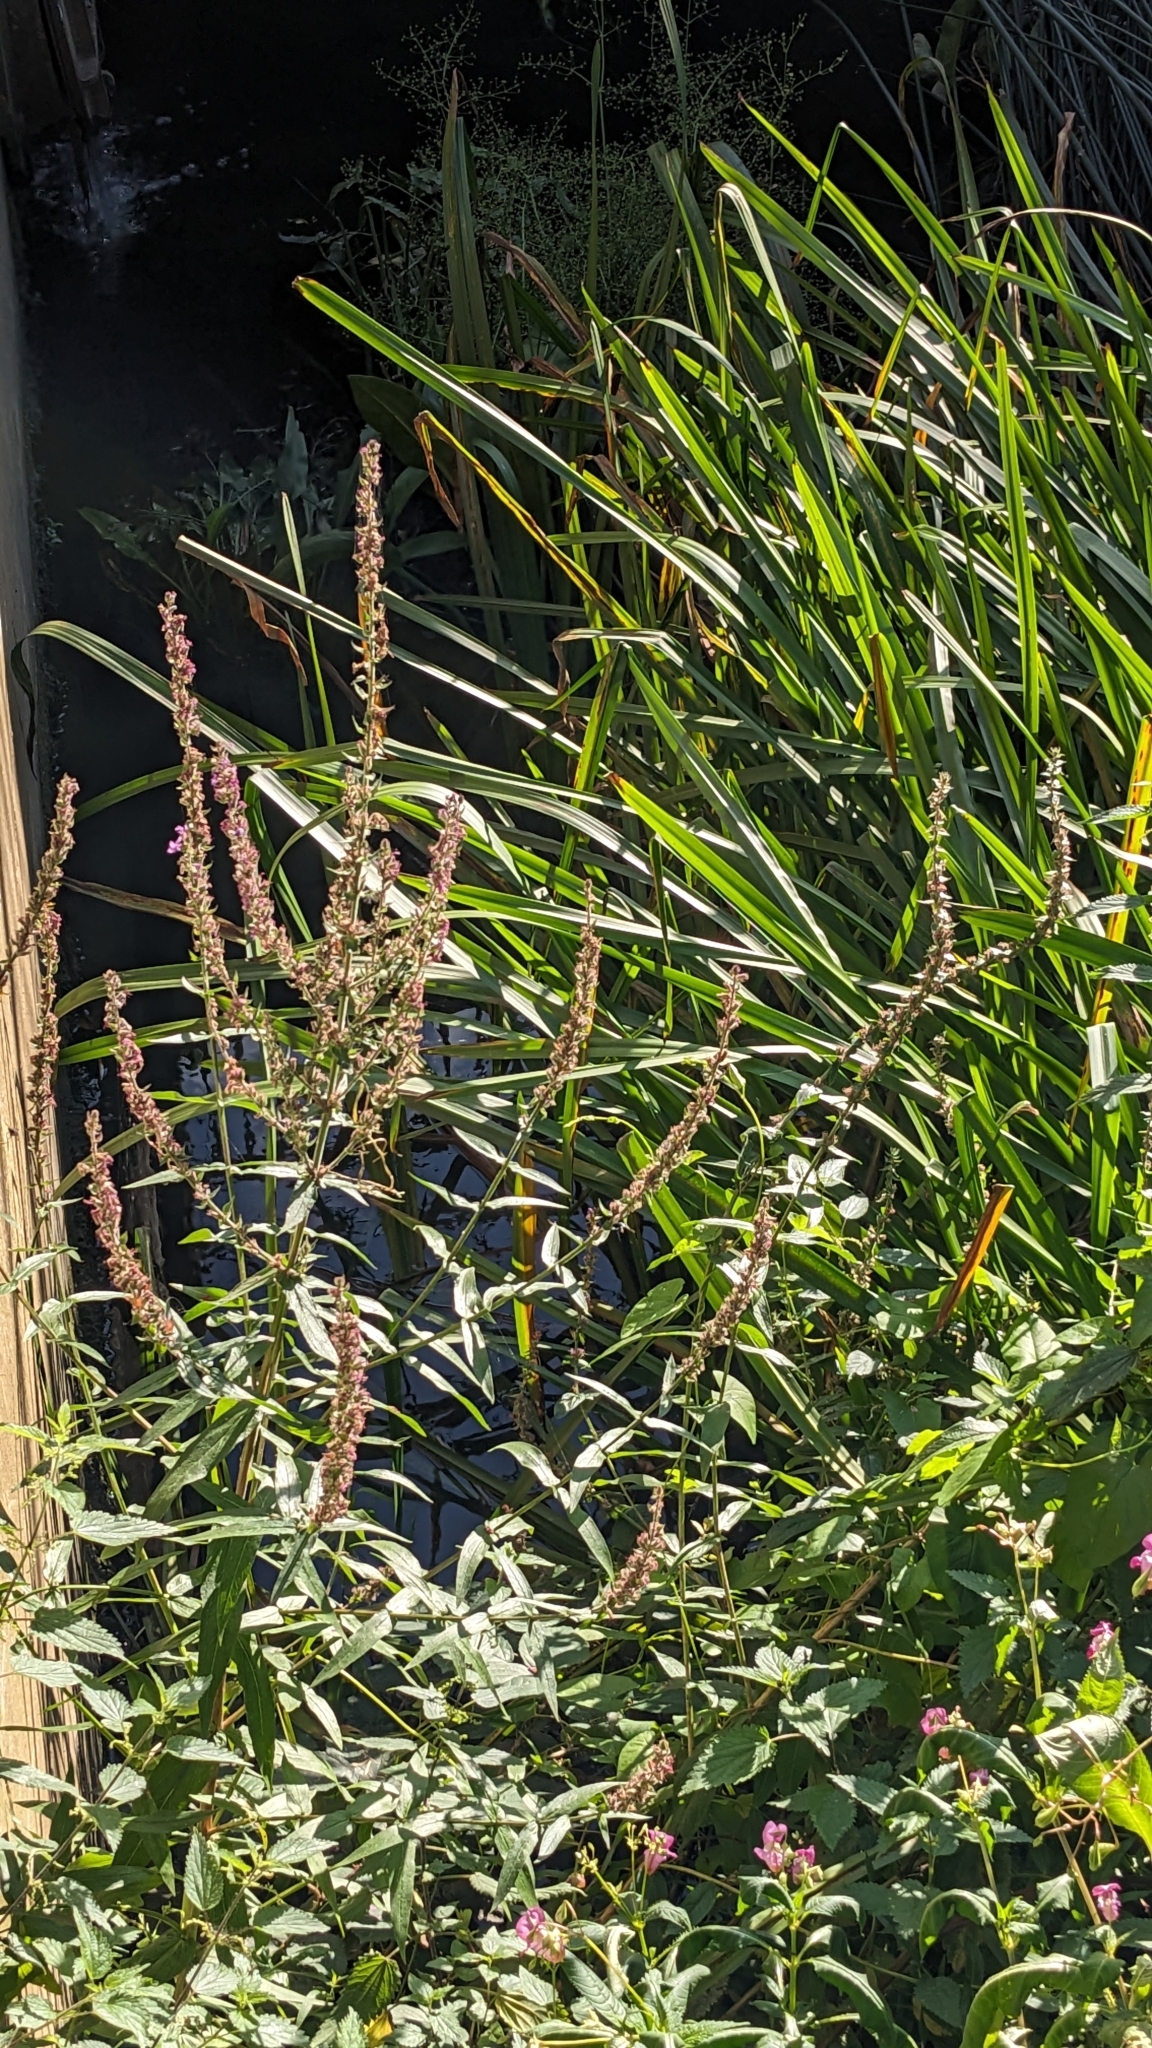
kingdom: Plantae
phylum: Tracheophyta
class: Magnoliopsida
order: Myrtales
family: Lythraceae
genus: Lythrum
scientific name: Lythrum salicaria
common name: Purple loosestrife
